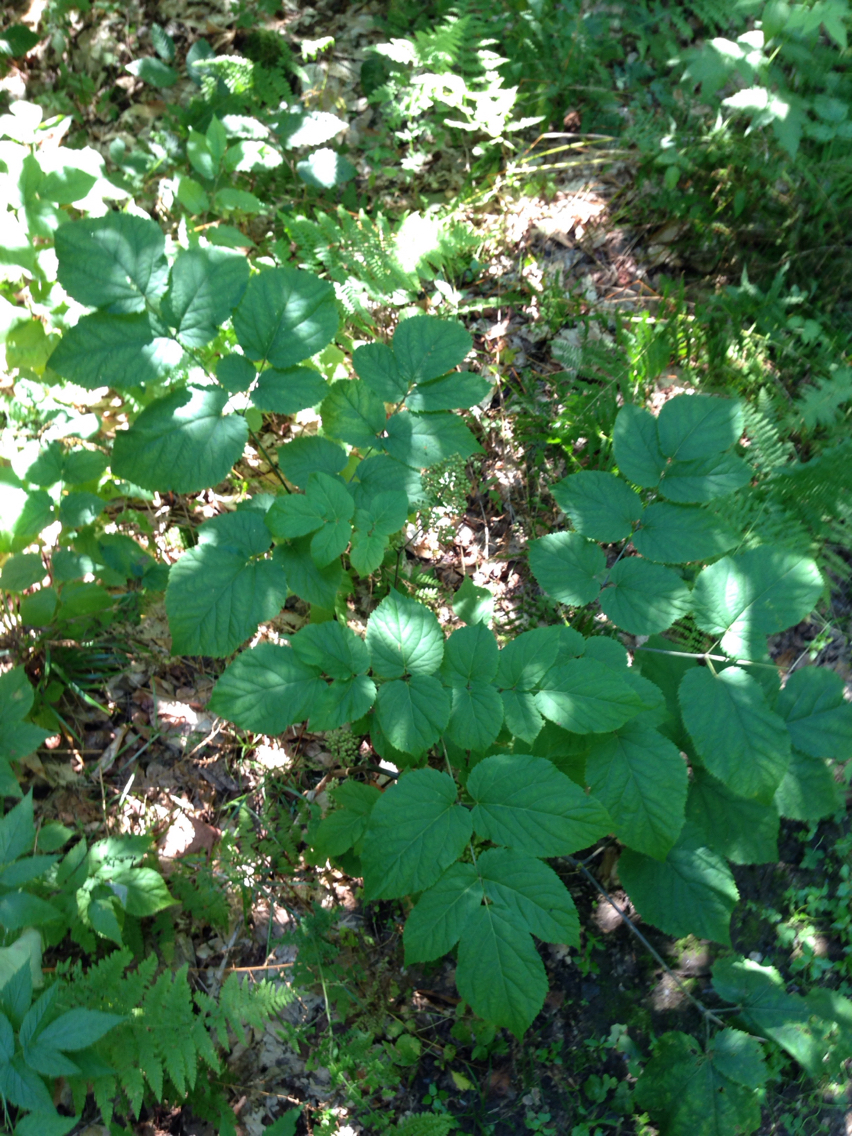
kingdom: Plantae
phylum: Tracheophyta
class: Magnoliopsida
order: Apiales
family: Araliaceae
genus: Aralia
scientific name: Aralia racemosa
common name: American-spikenard
